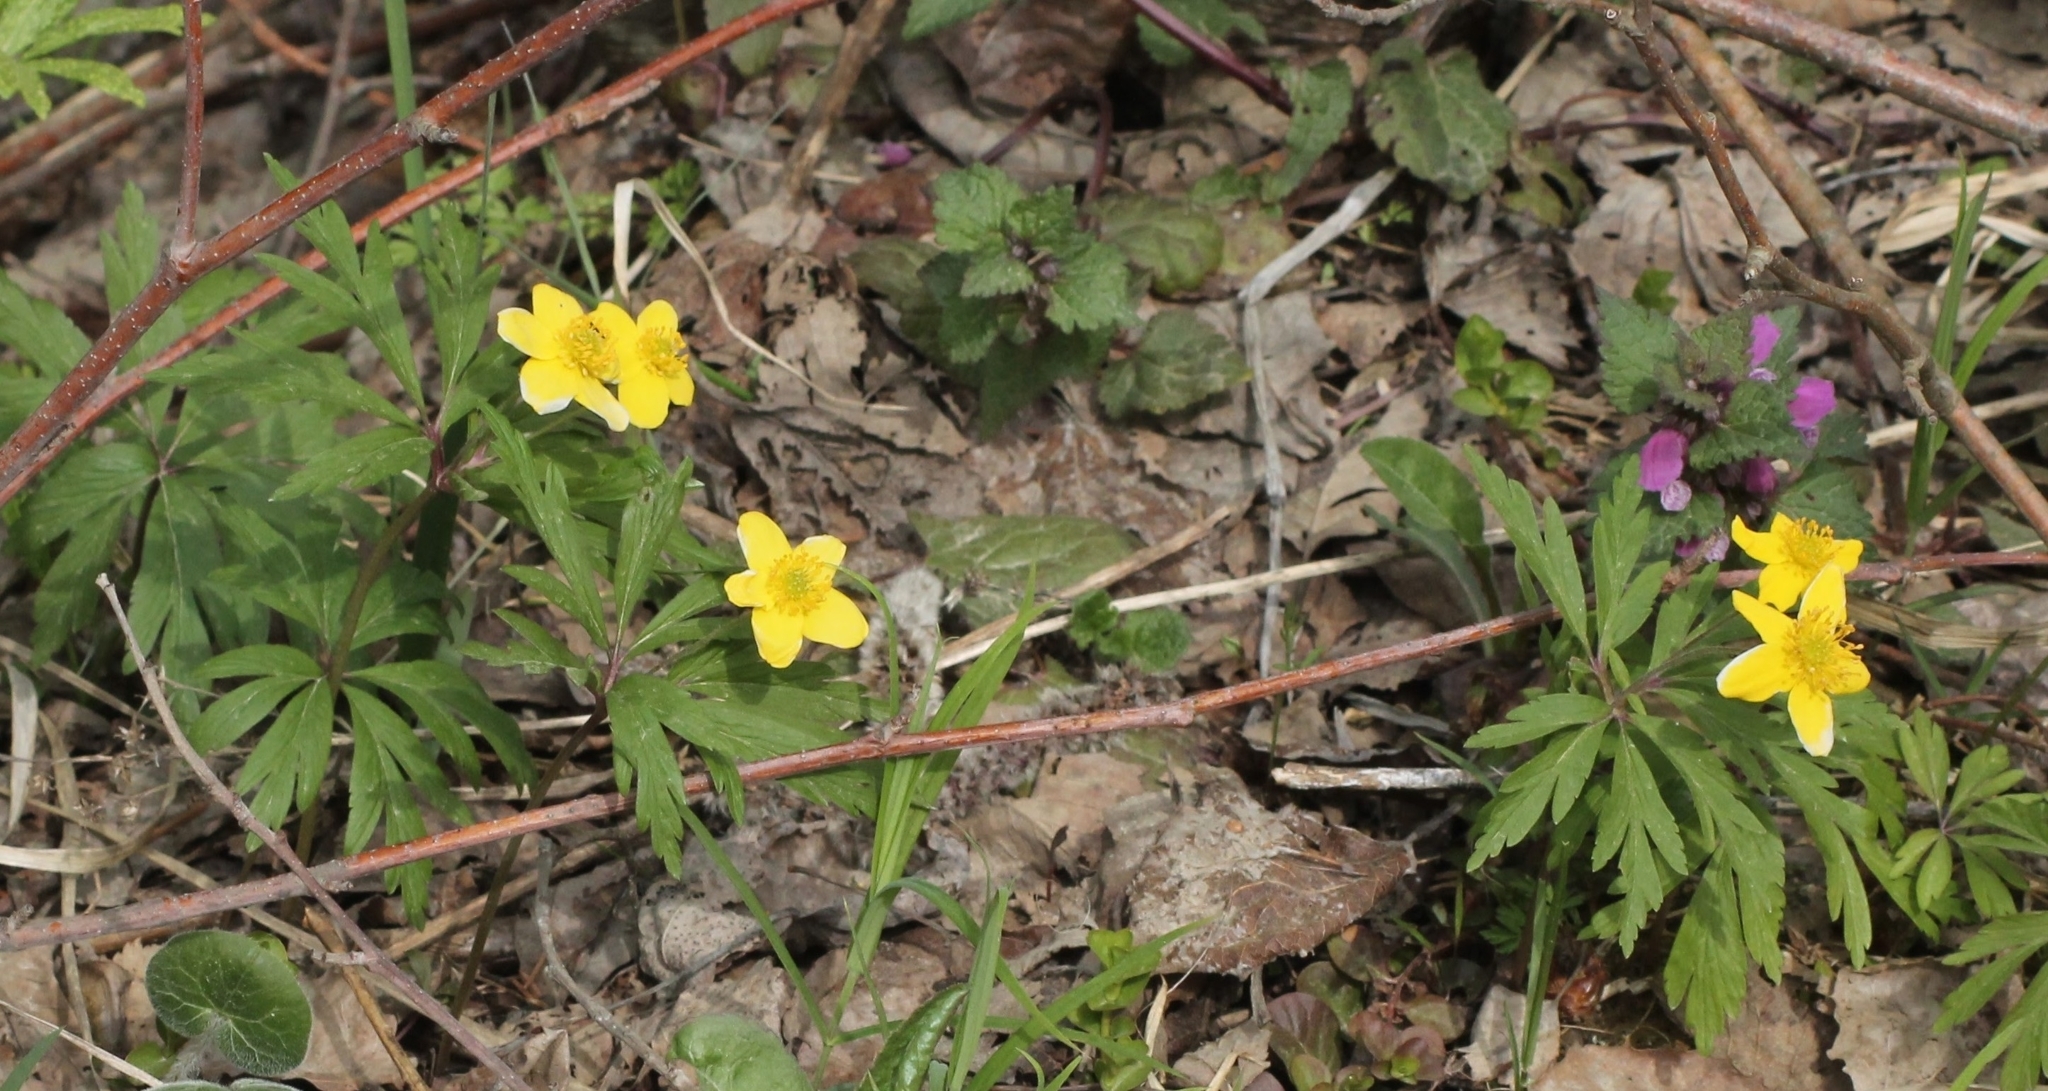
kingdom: Plantae
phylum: Tracheophyta
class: Magnoliopsida
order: Ranunculales
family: Ranunculaceae
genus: Anemone
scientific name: Anemone ranunculoides
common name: Yellow anemone
